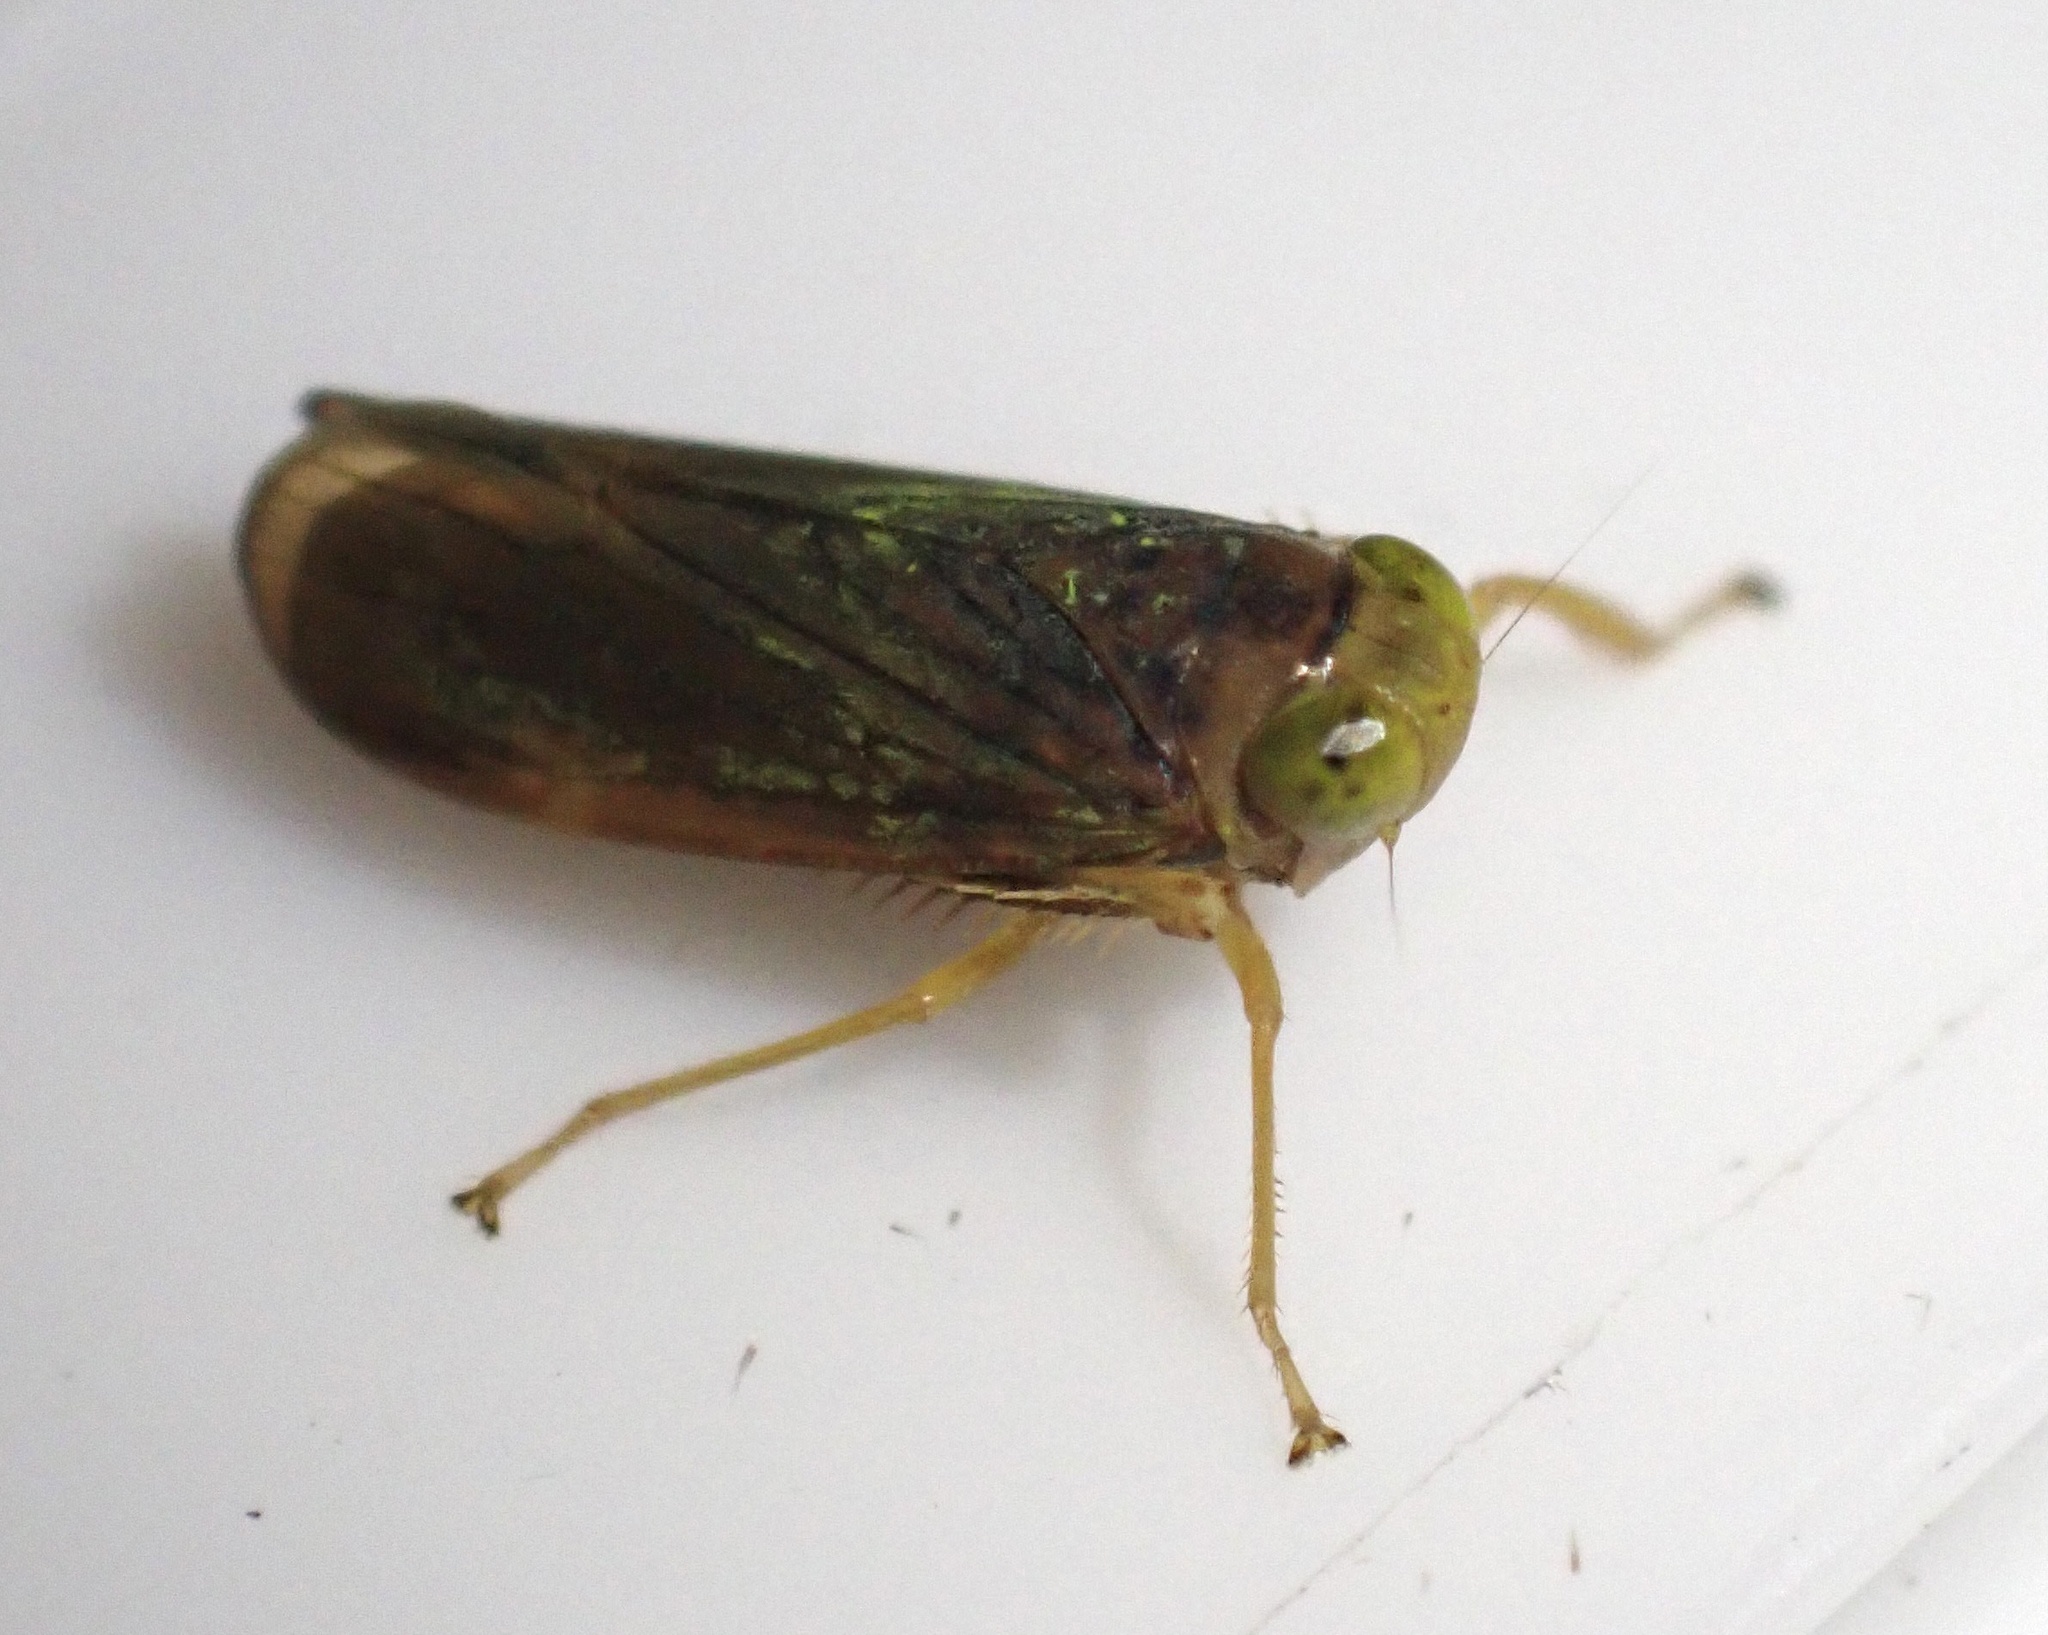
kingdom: Animalia
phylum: Arthropoda
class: Insecta
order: Hemiptera
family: Cicadellidae
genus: Jikradia
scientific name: Jikradia olitoria
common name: Coppery leafhopper
